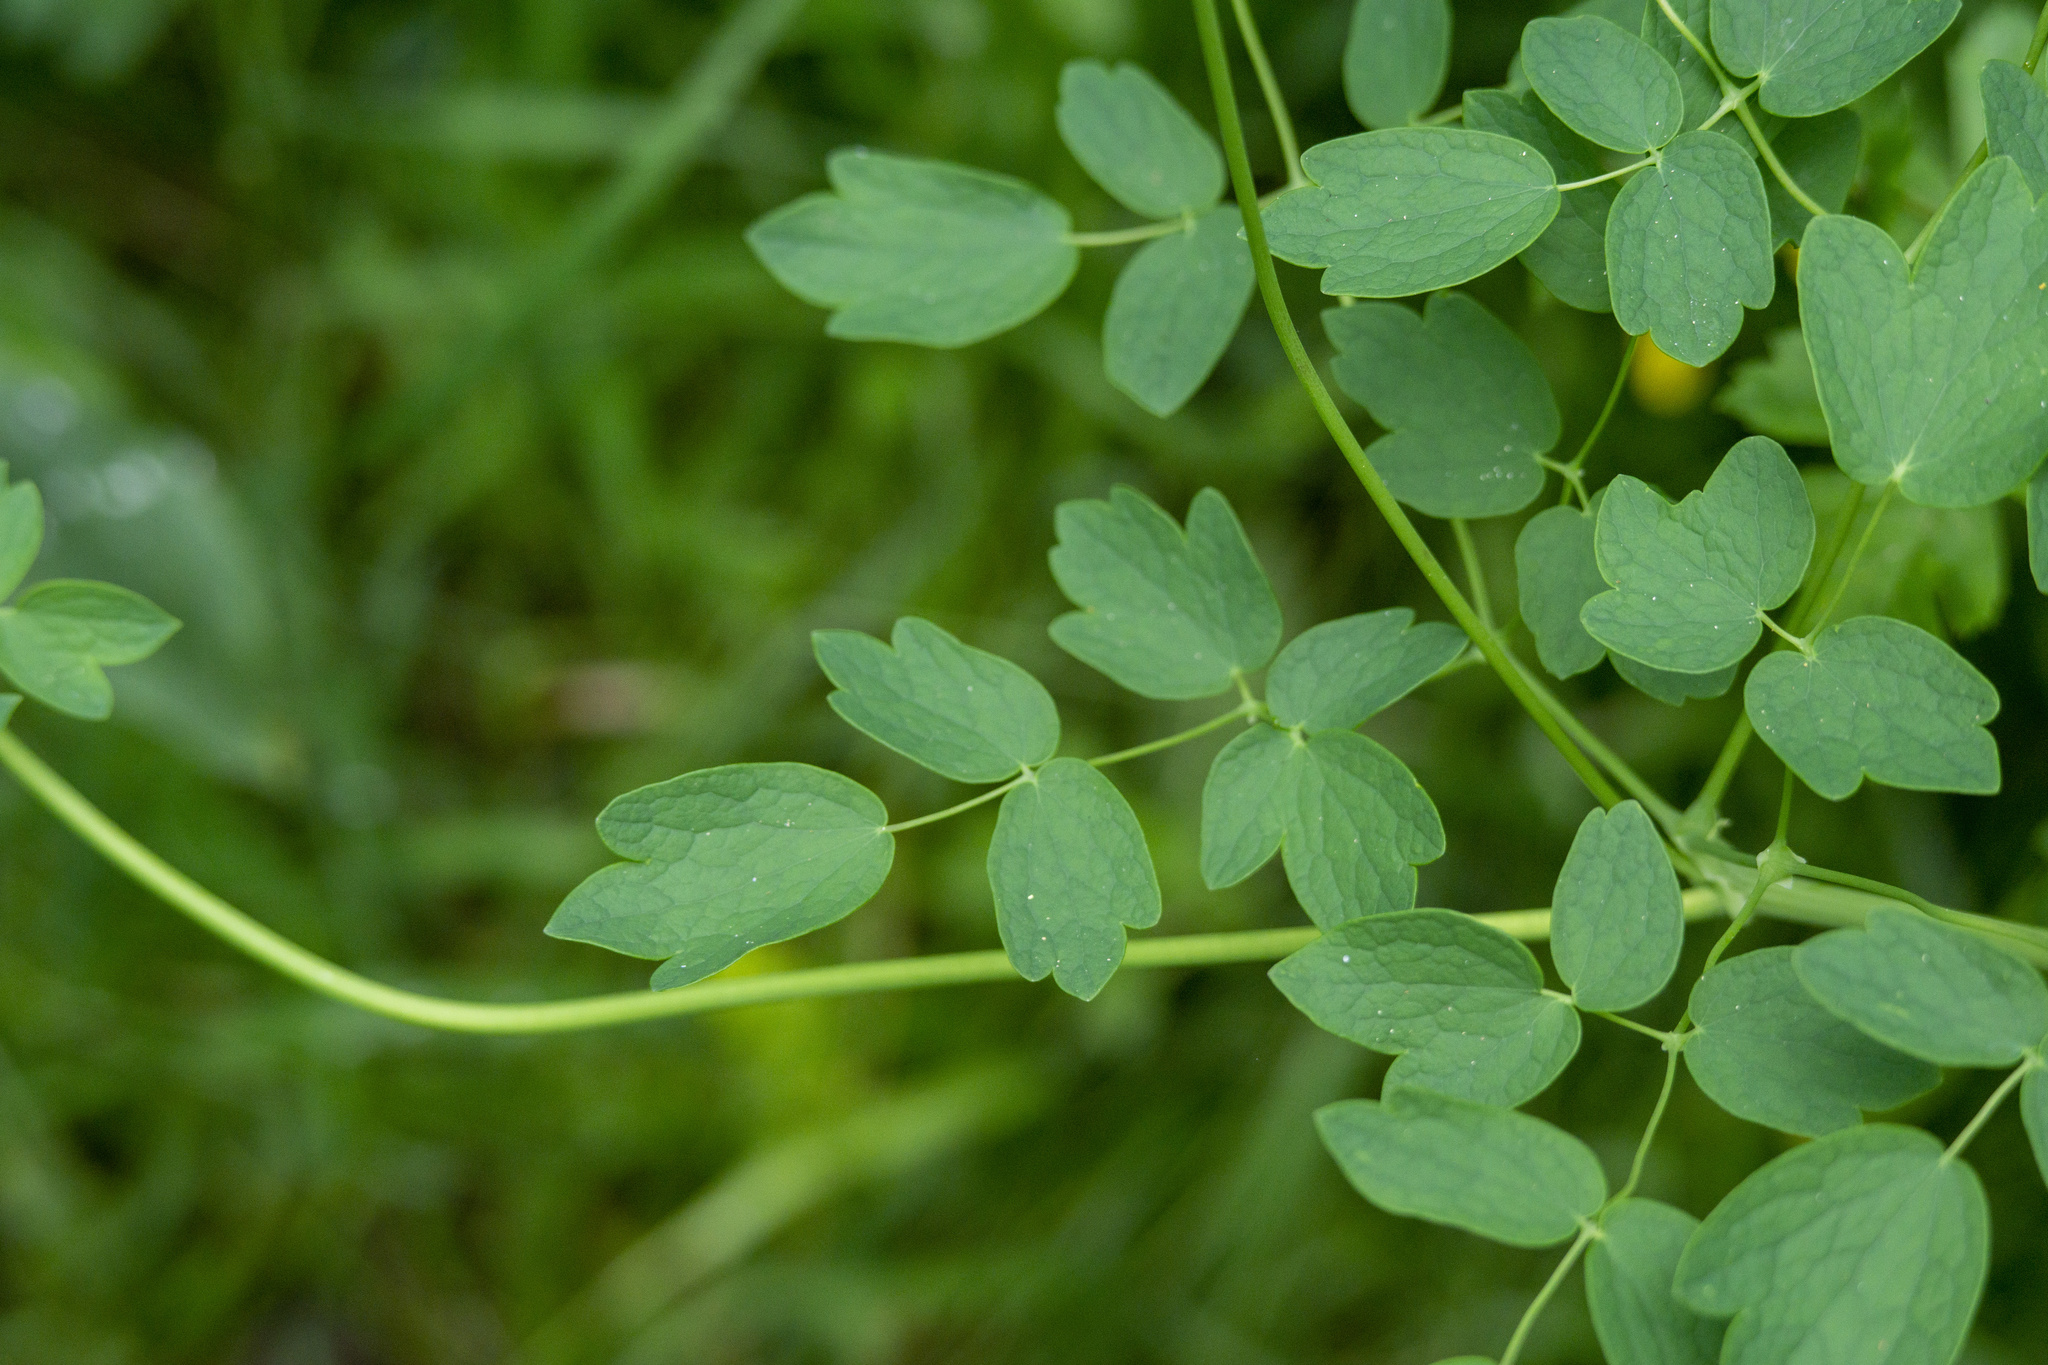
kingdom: Plantae
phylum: Tracheophyta
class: Magnoliopsida
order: Ranunculales
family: Ranunculaceae
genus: Thalictrum
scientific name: Thalictrum aquilegiifolium
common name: French meadow-rue
